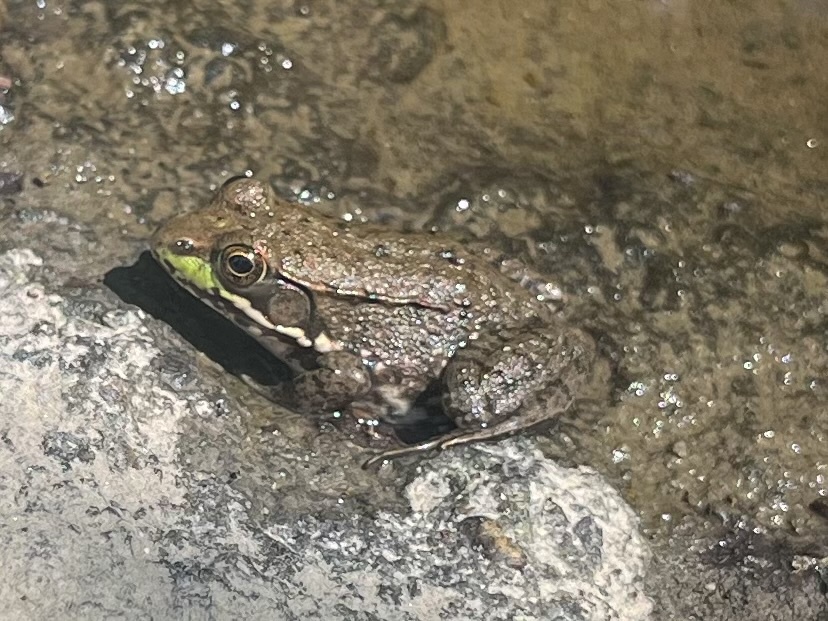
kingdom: Animalia
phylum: Chordata
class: Amphibia
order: Anura
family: Ranidae
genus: Lithobates
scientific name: Lithobates clamitans
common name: Green frog
